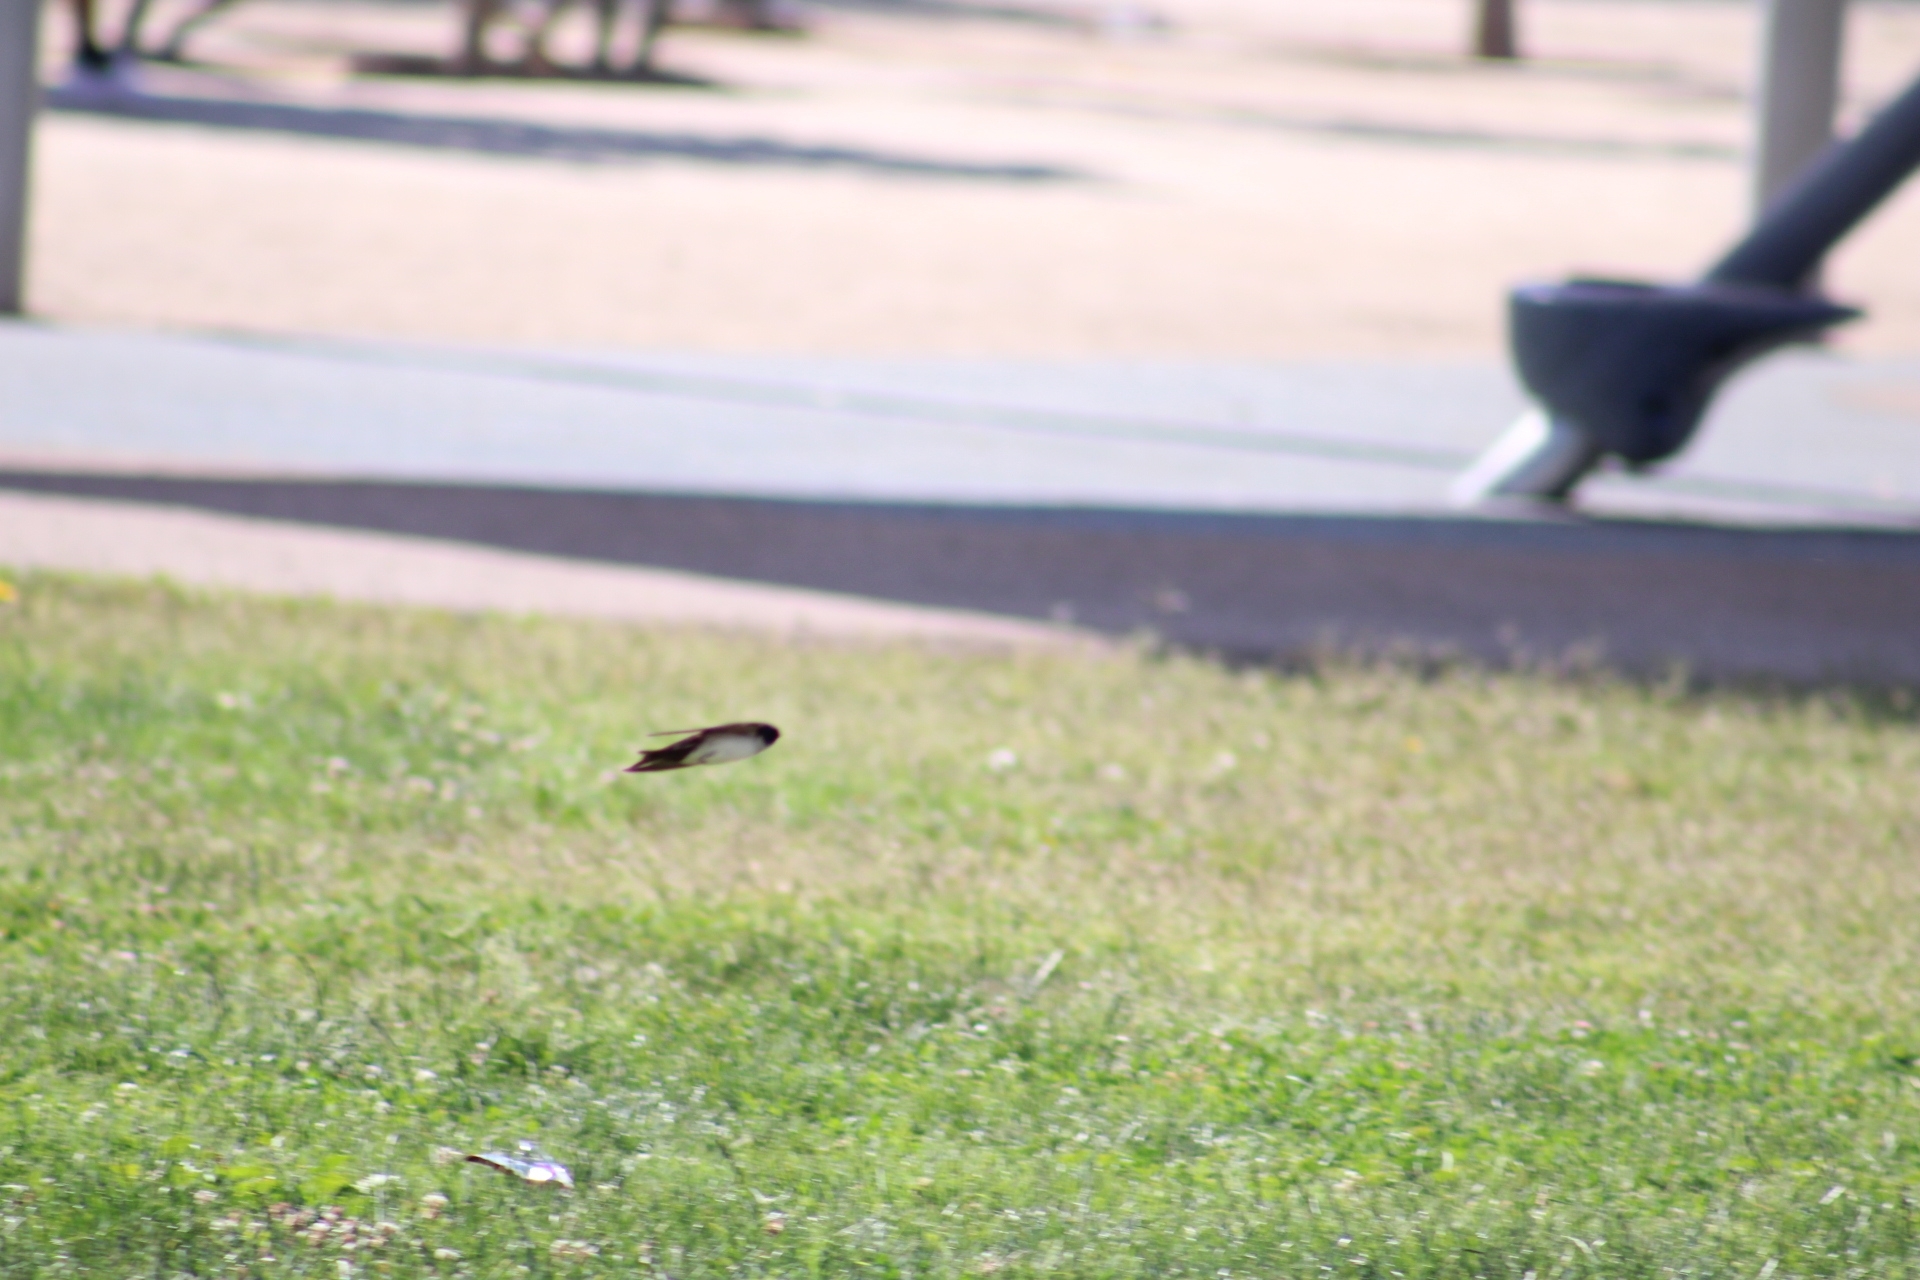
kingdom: Animalia
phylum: Chordata
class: Aves
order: Passeriformes
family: Hirundinidae
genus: Notiochelidon
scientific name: Notiochelidon cyanoleuca
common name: Blue-and-white swallow
